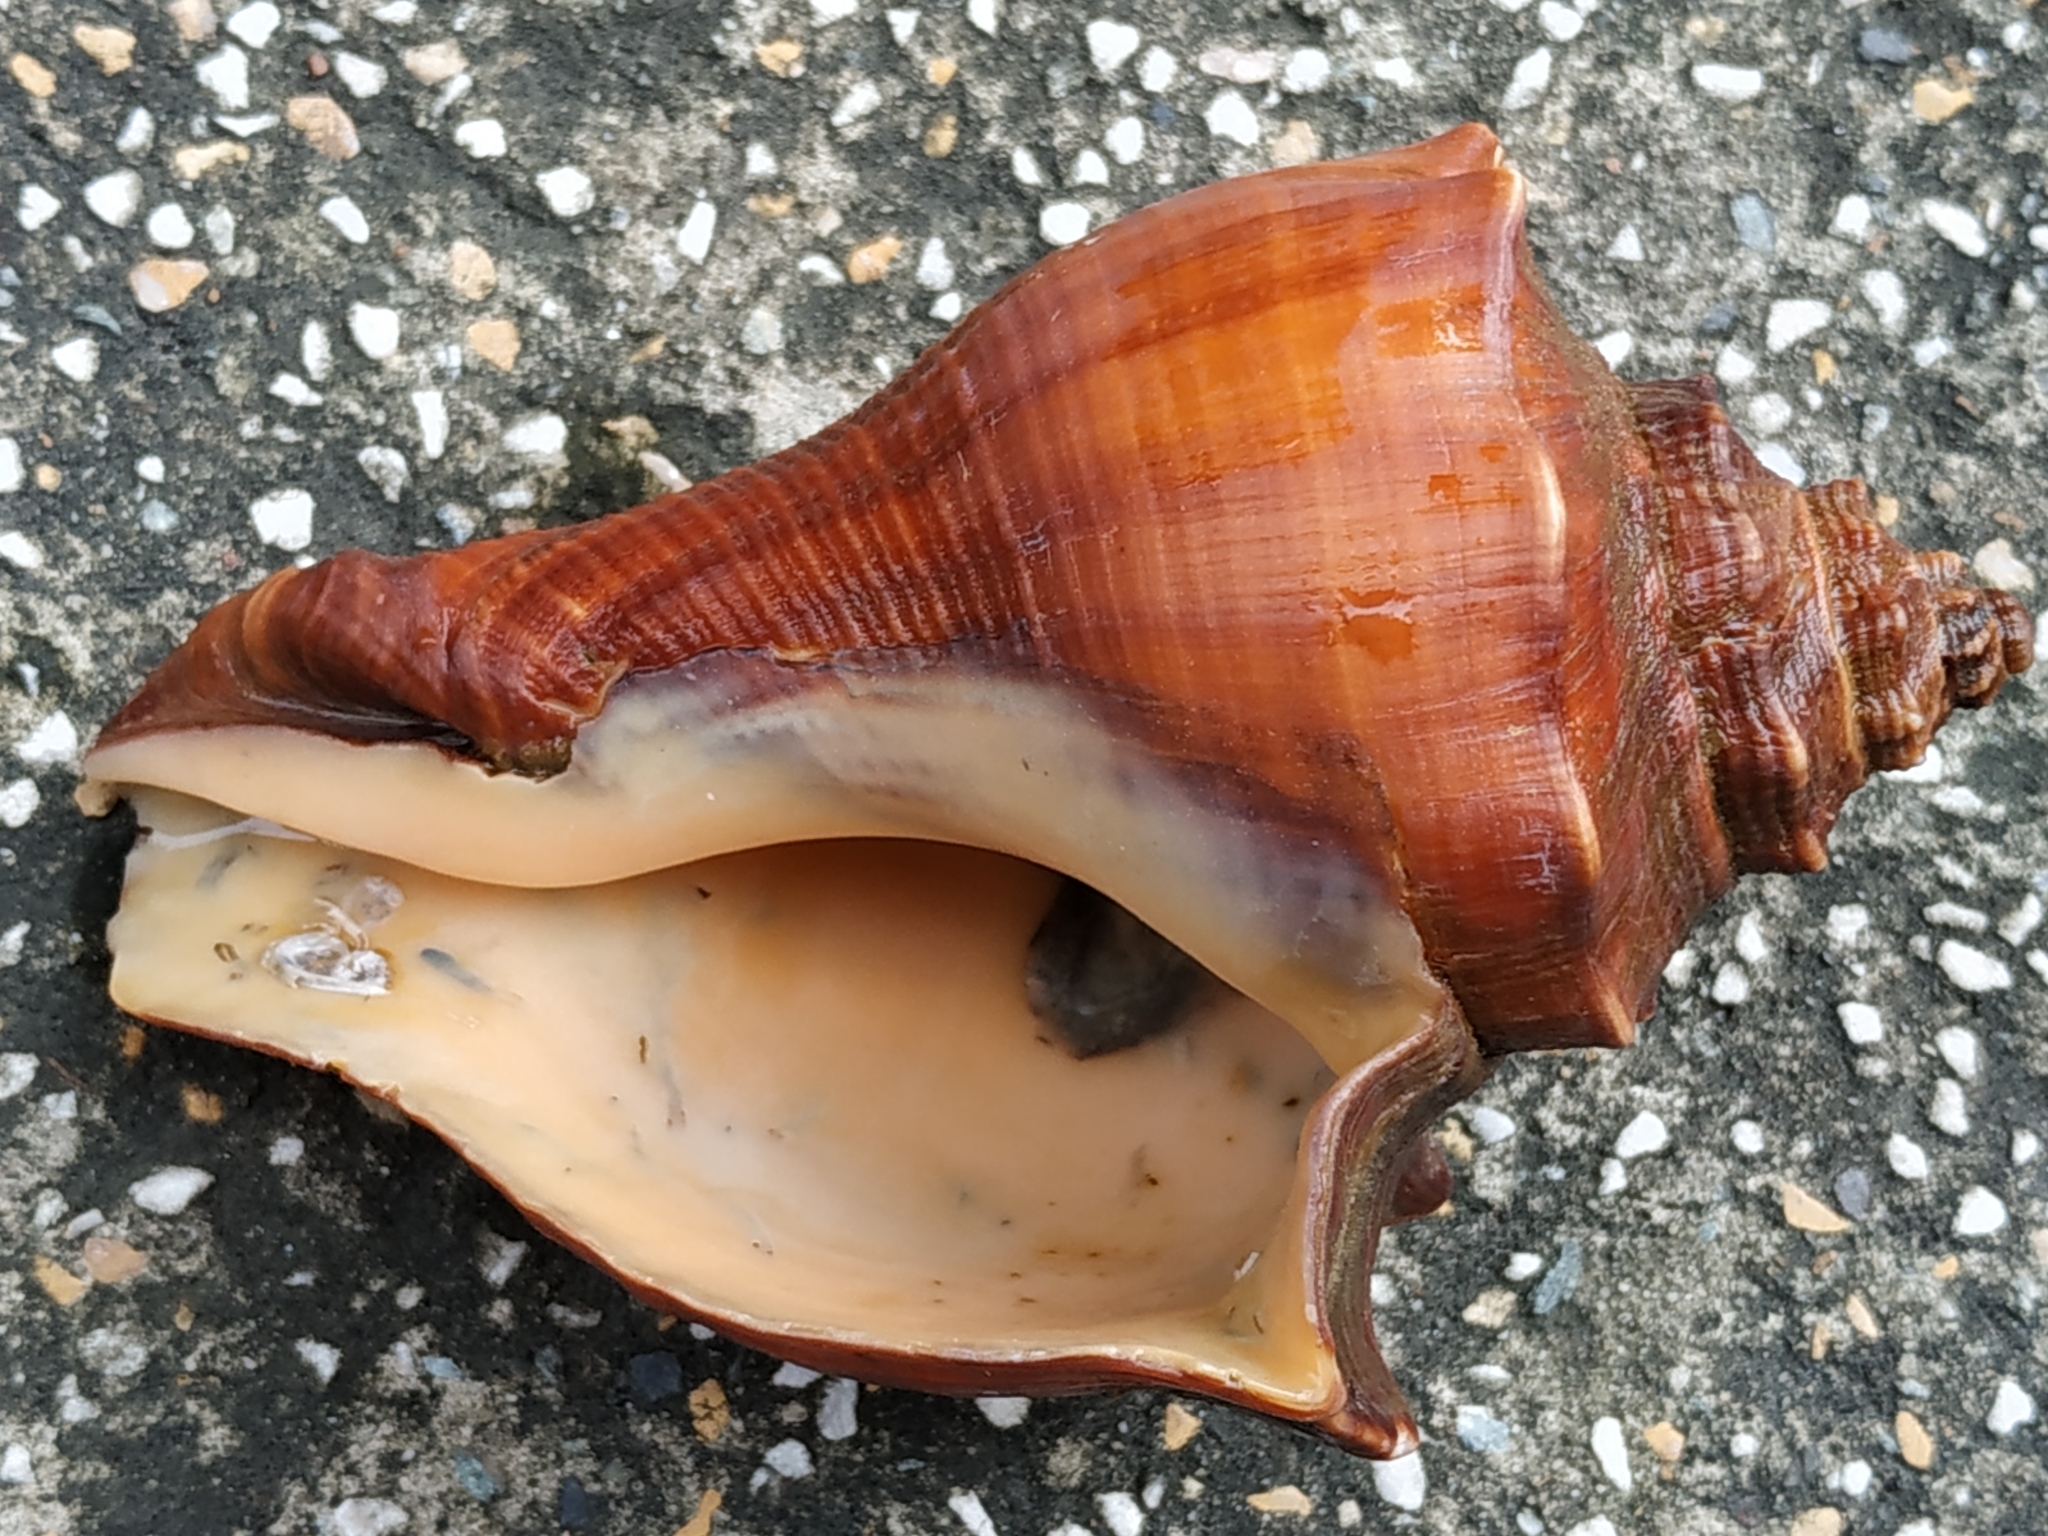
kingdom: Animalia
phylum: Mollusca
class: Gastropoda
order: Neogastropoda
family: Melongenidae
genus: Volegalea
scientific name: Volegalea cochlidium
